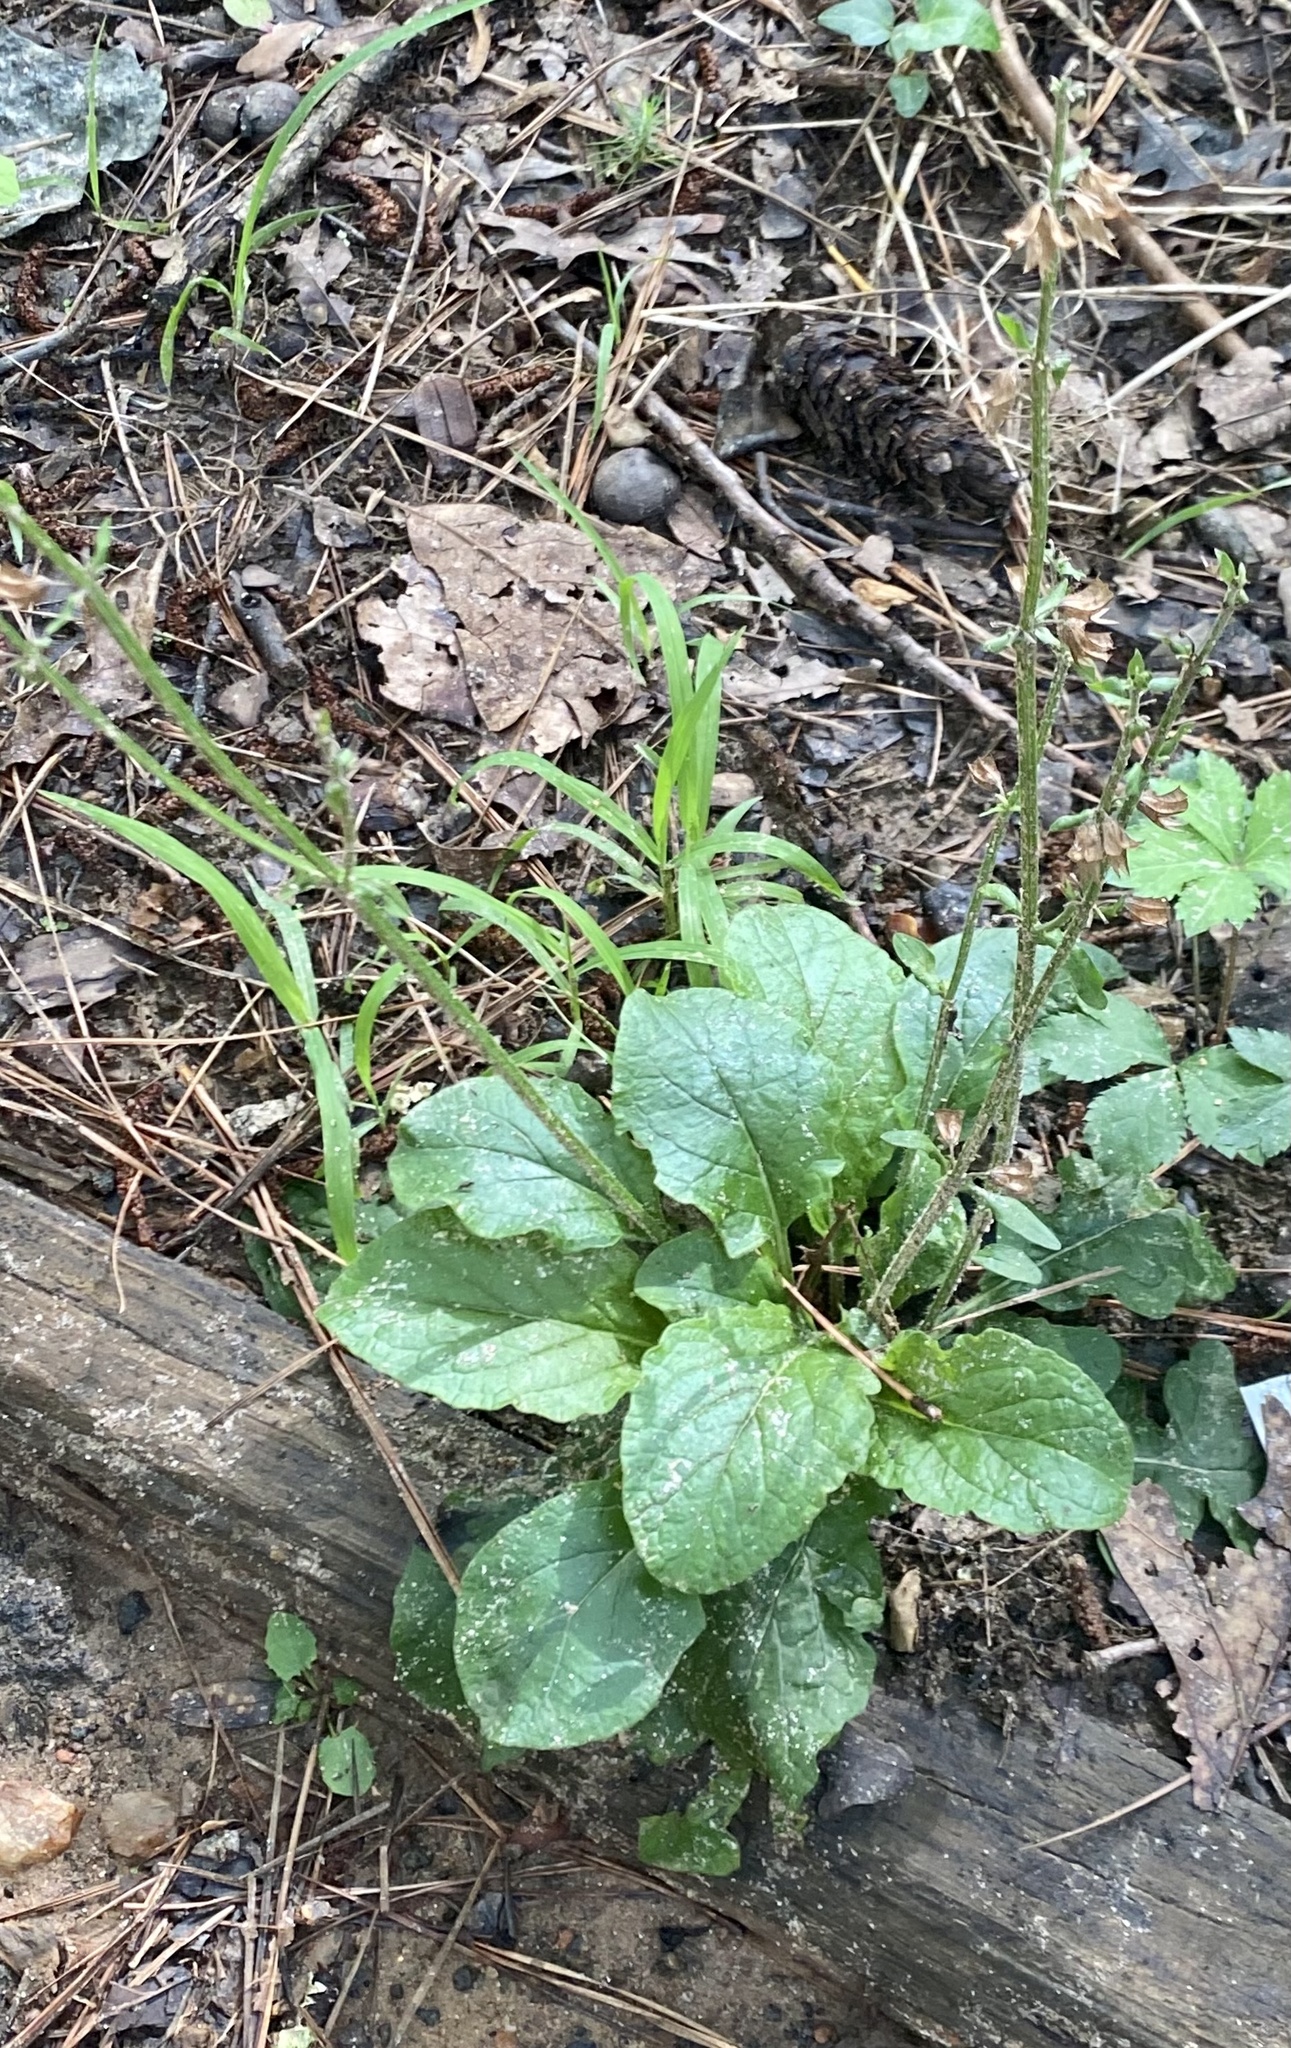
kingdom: Plantae
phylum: Tracheophyta
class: Magnoliopsida
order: Lamiales
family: Lamiaceae
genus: Salvia
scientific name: Salvia lyrata
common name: Cancerweed
